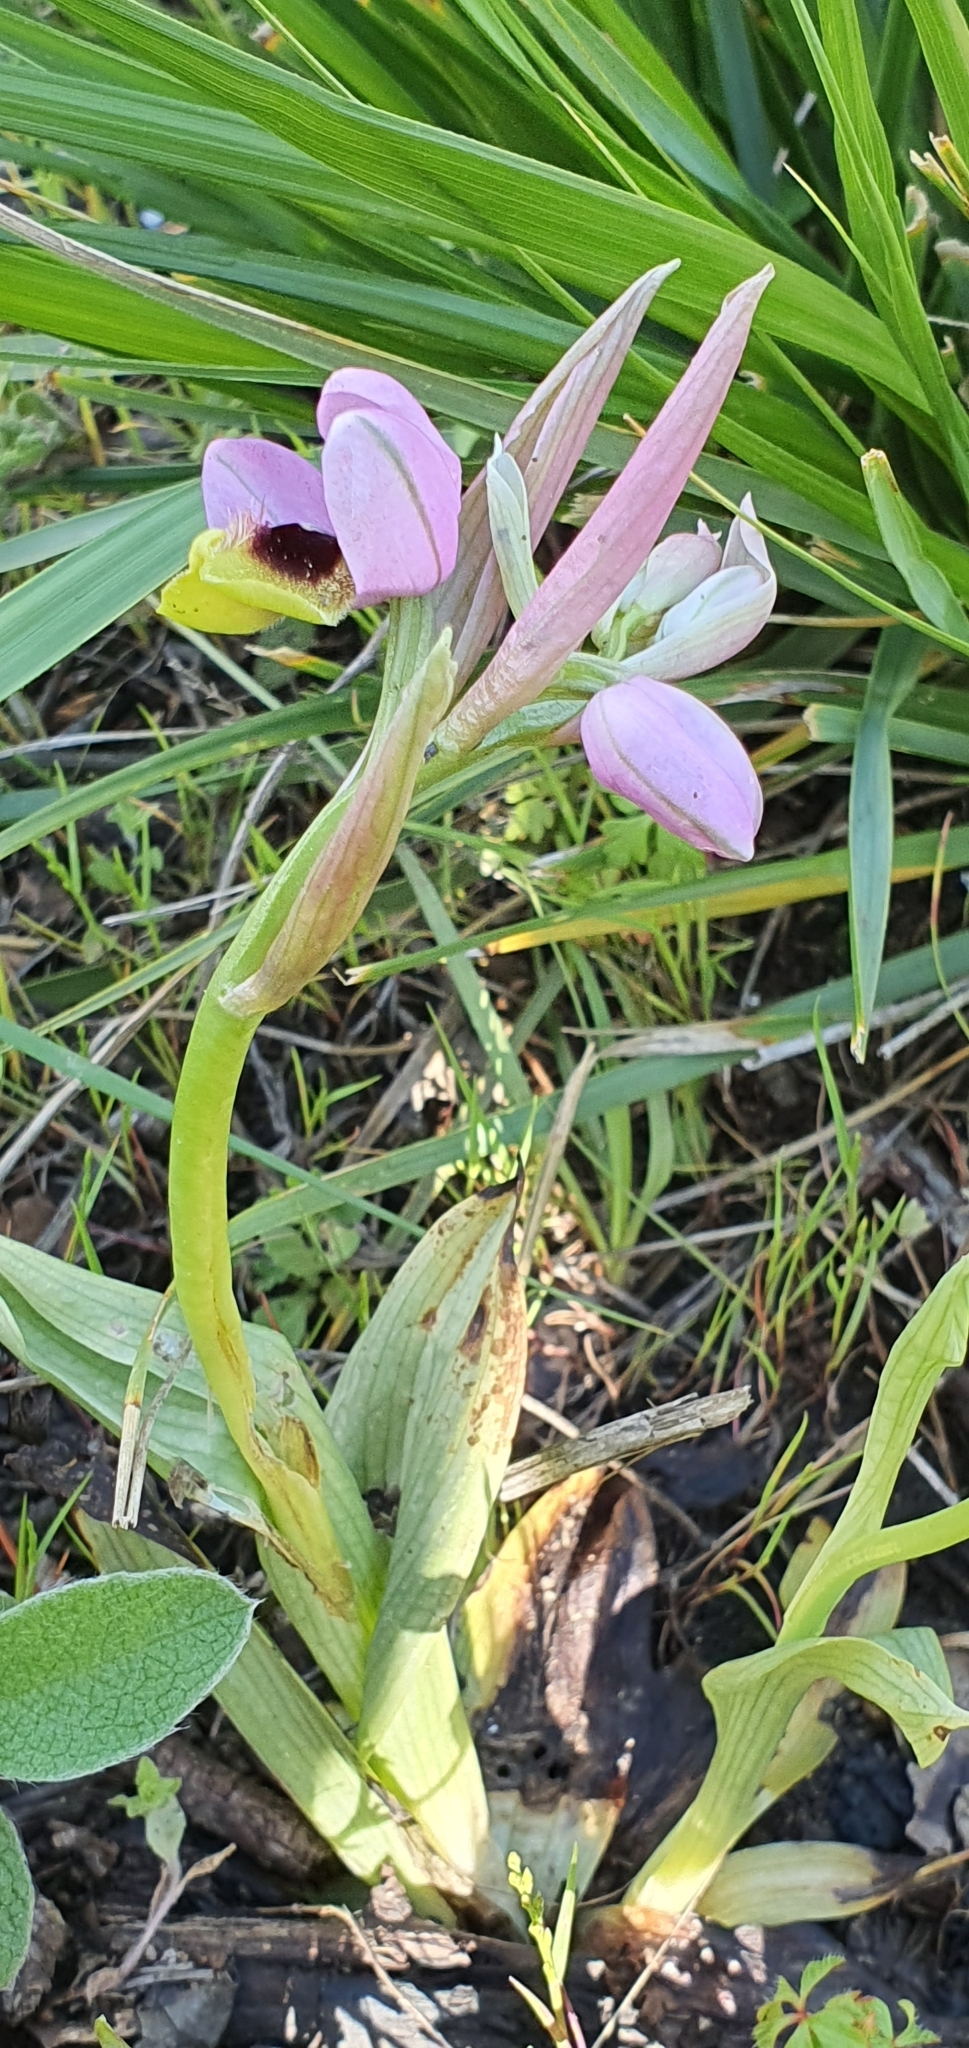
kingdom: Plantae
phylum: Tracheophyta
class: Liliopsida
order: Asparagales
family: Orchidaceae
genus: Ophrys
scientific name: Ophrys tenthredinifera
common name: Sawfly orchid
